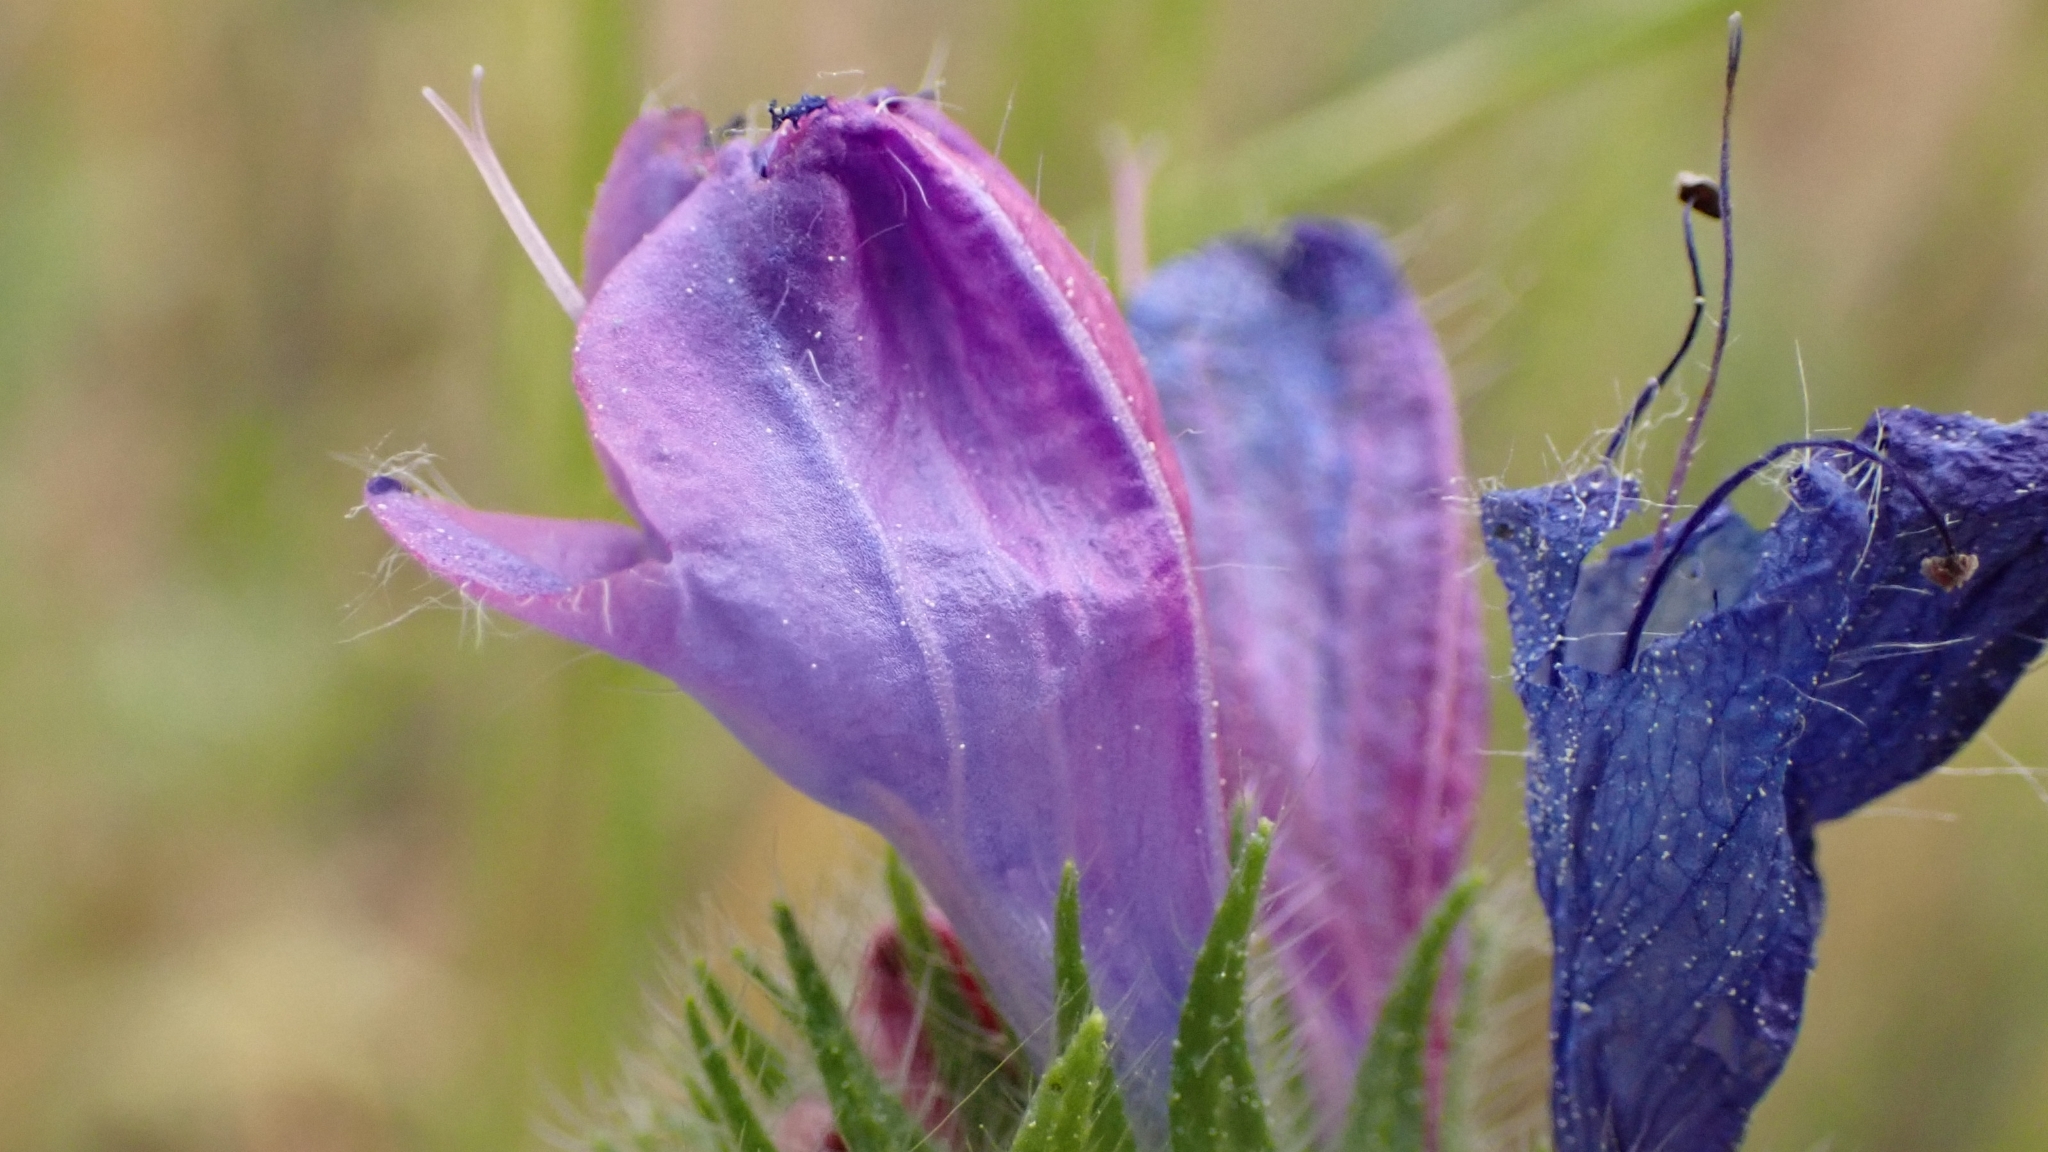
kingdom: Plantae
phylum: Tracheophyta
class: Magnoliopsida
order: Boraginales
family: Boraginaceae
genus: Echium
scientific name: Echium plantagineum
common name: Purple viper's-bugloss
